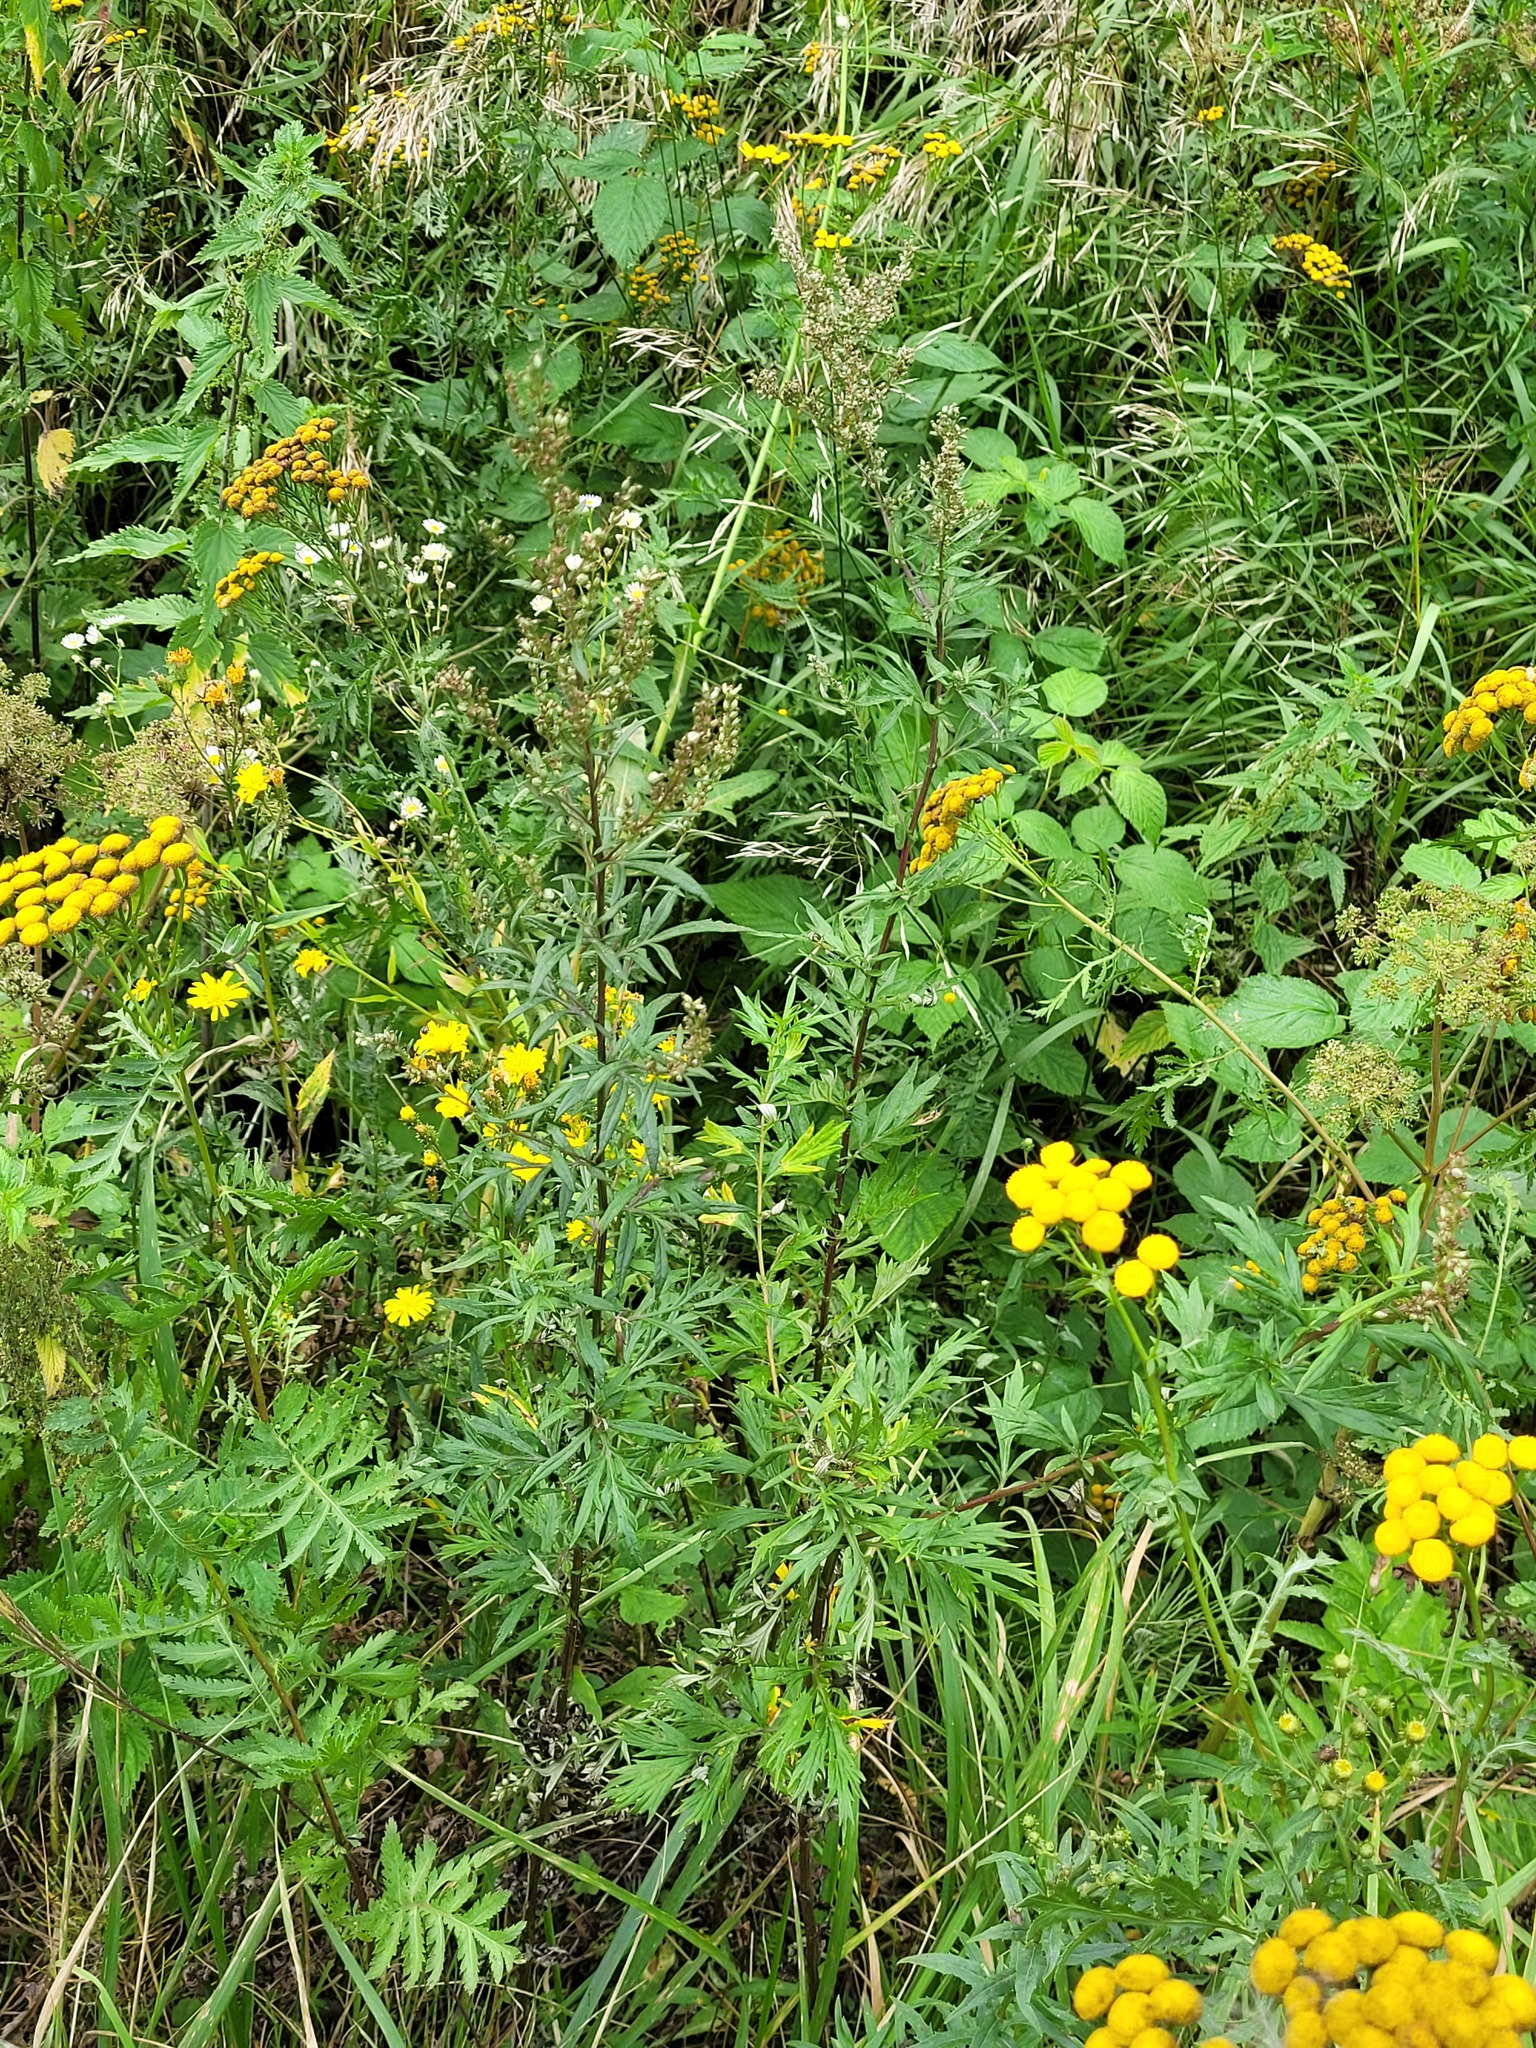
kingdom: Plantae
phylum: Tracheophyta
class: Magnoliopsida
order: Asterales
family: Asteraceae
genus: Artemisia
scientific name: Artemisia vulgaris
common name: Mugwort
